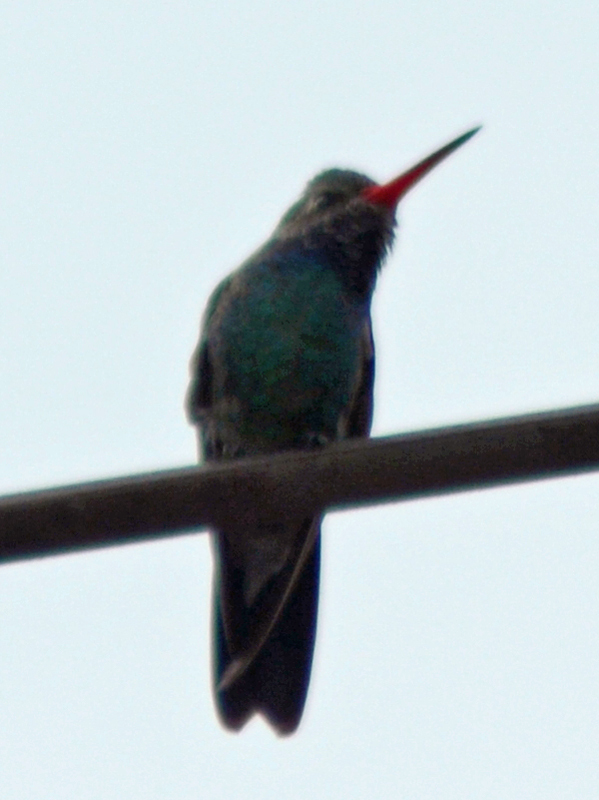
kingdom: Animalia
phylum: Chordata
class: Aves
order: Apodiformes
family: Trochilidae
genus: Cynanthus
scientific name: Cynanthus latirostris
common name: Broad-billed hummingbird
